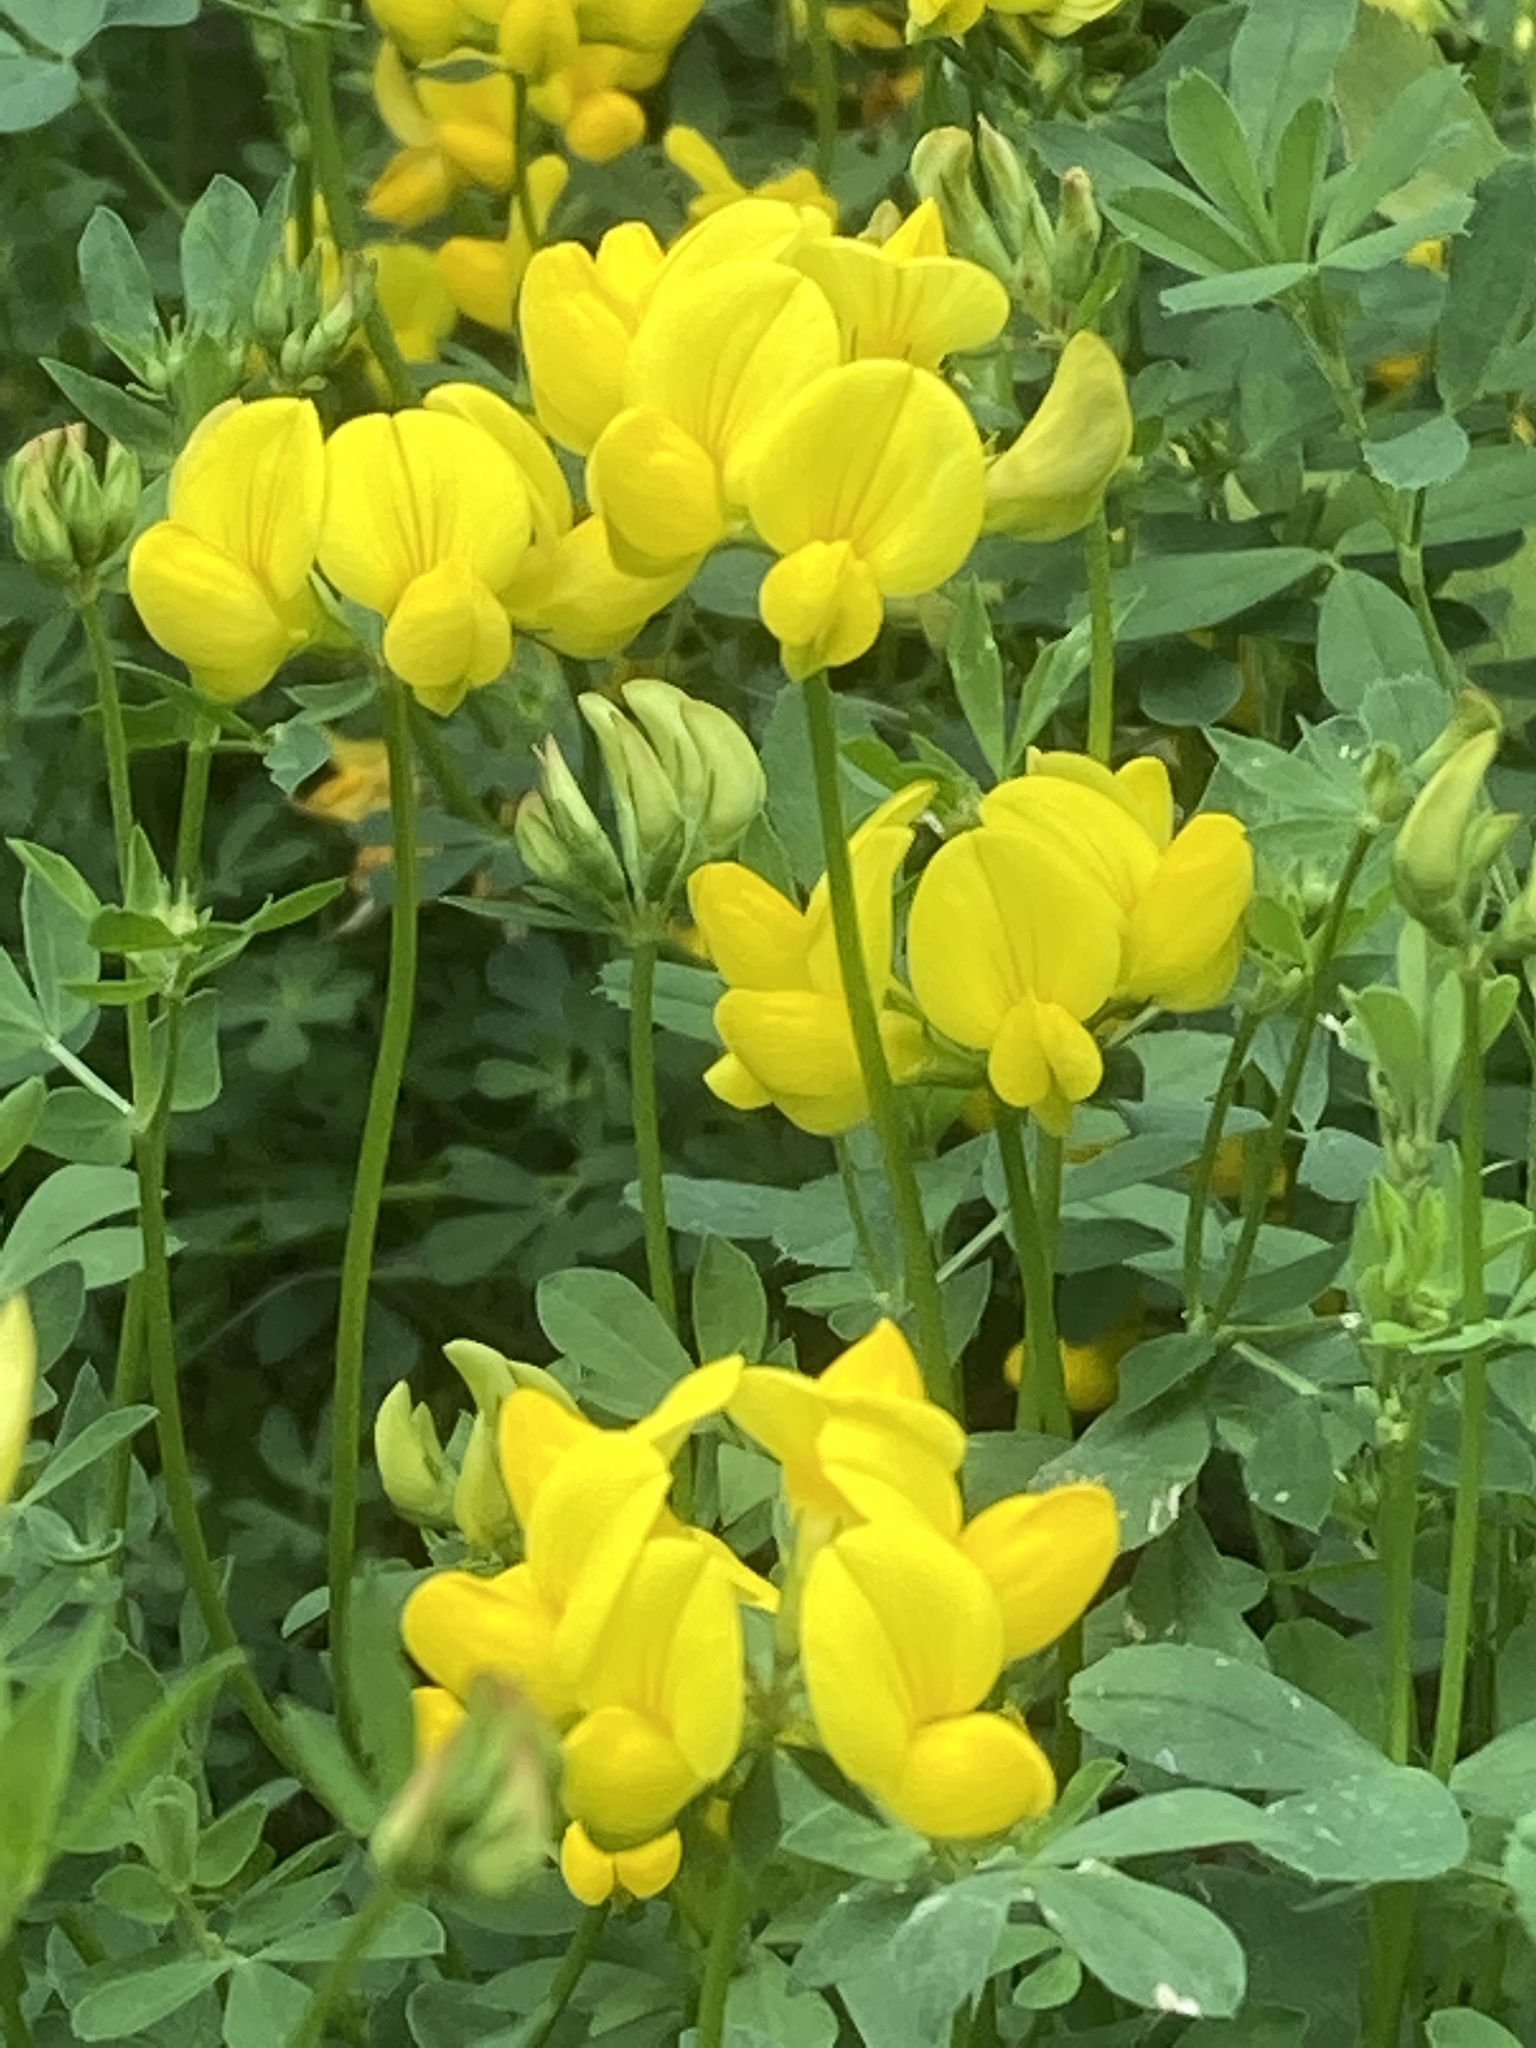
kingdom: Plantae
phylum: Tracheophyta
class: Magnoliopsida
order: Fabales
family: Fabaceae
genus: Lotus
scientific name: Lotus corniculatus
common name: Common bird's-foot-trefoil
